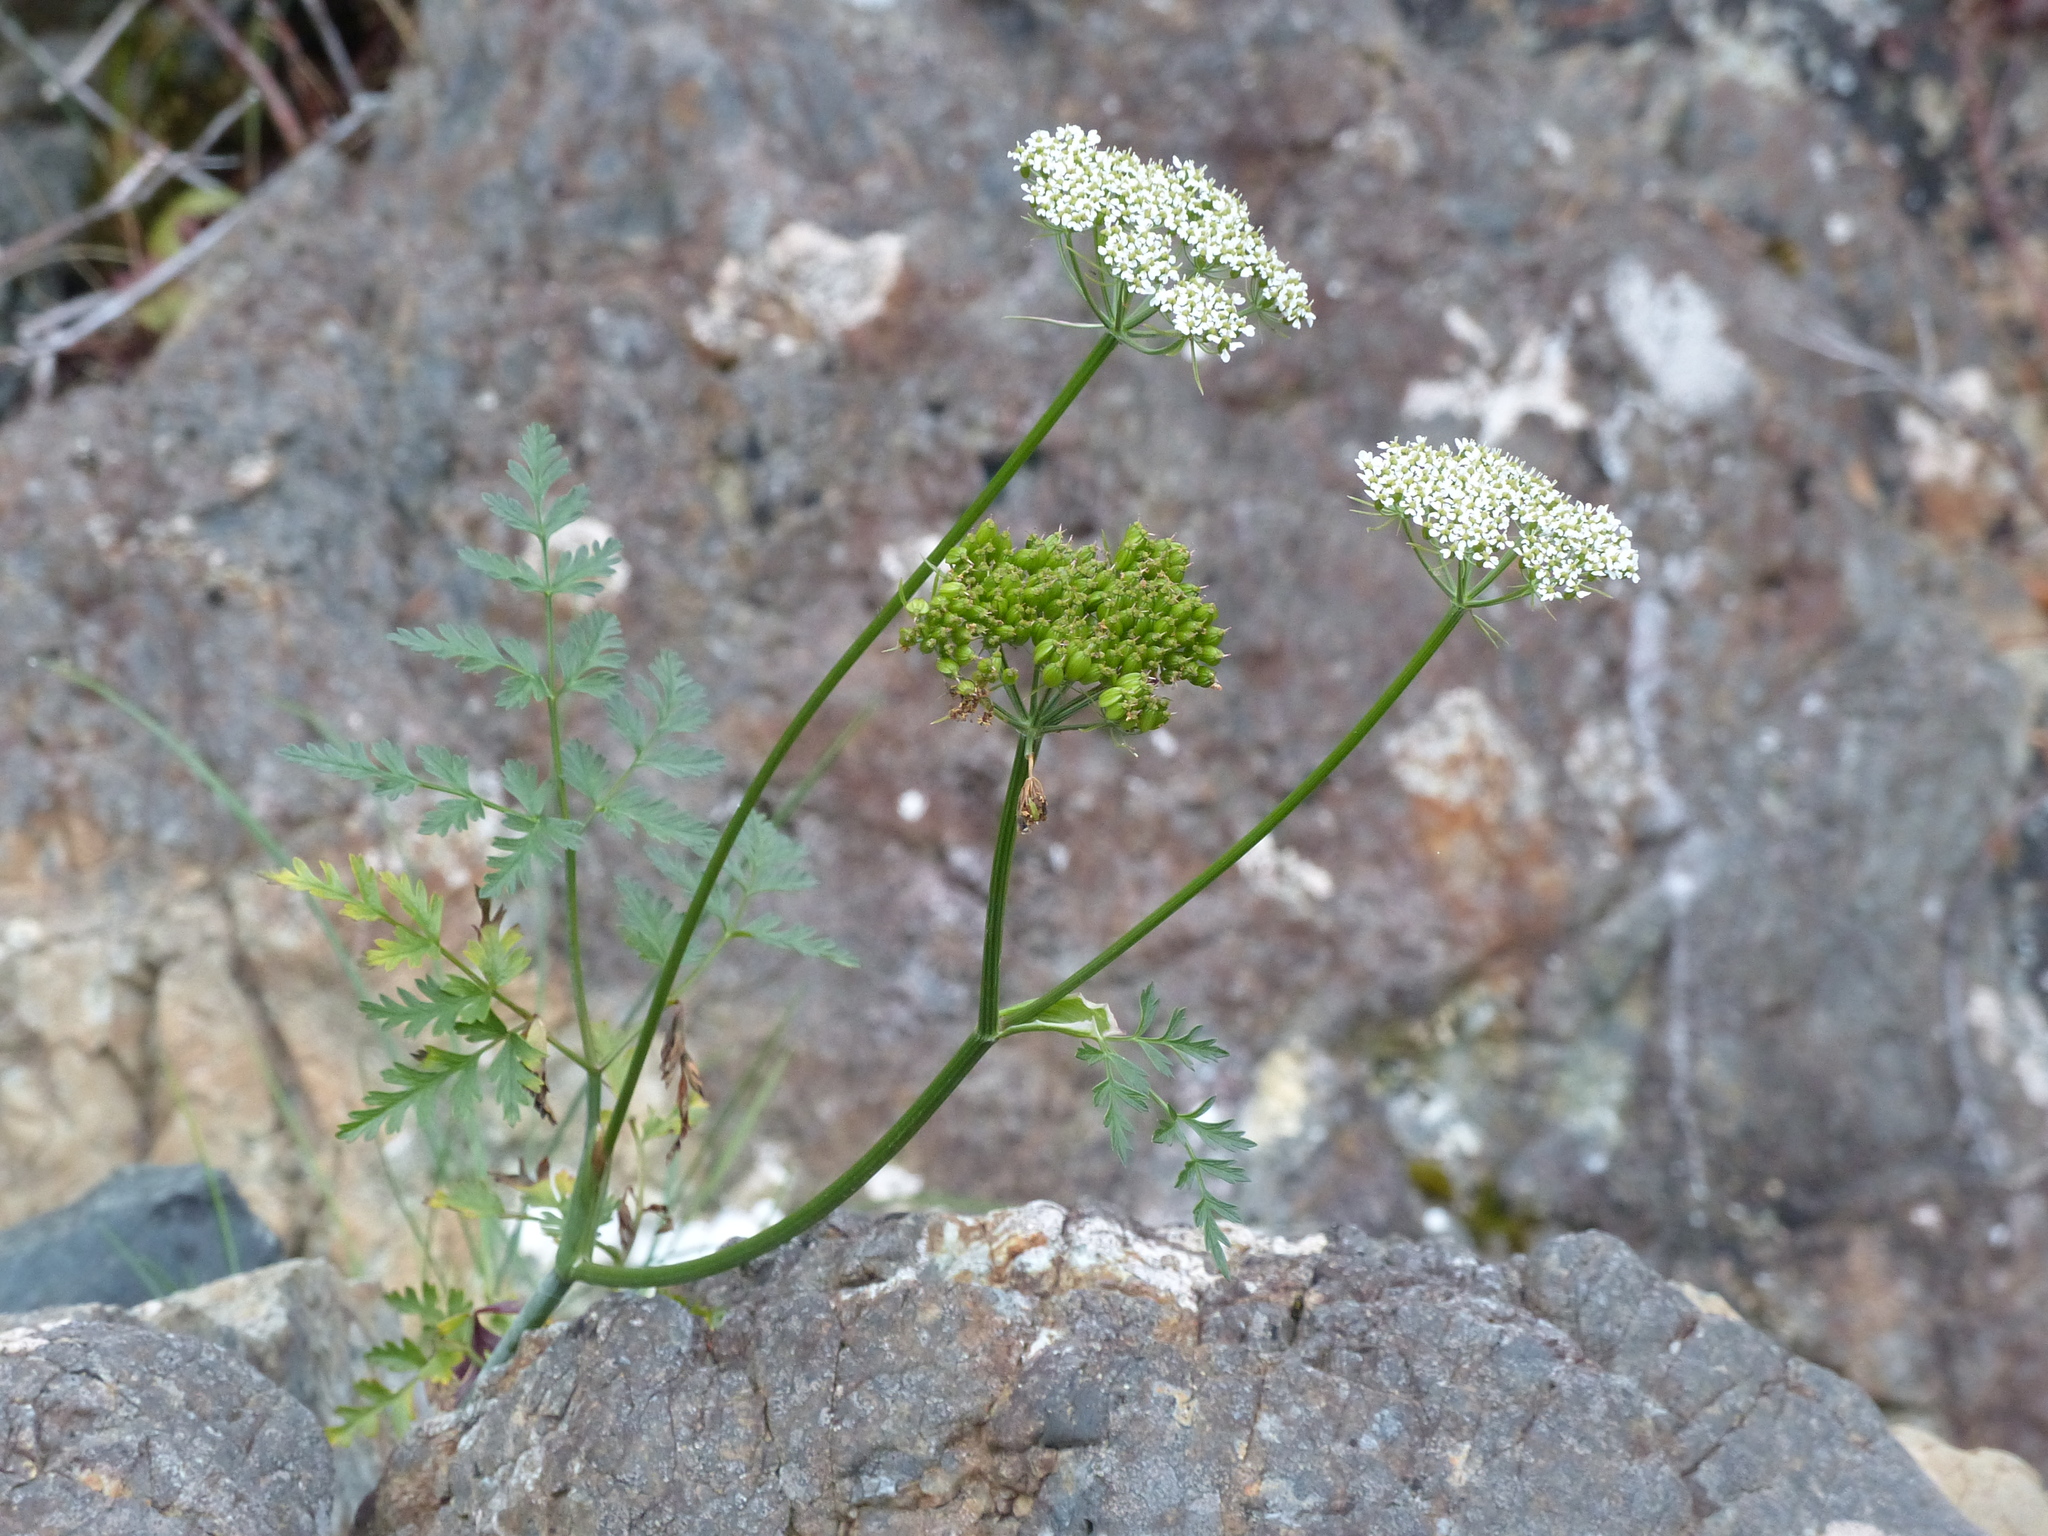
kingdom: Plantae
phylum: Tracheophyta
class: Magnoliopsida
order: Apiales
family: Apiaceae
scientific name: Apiaceae
